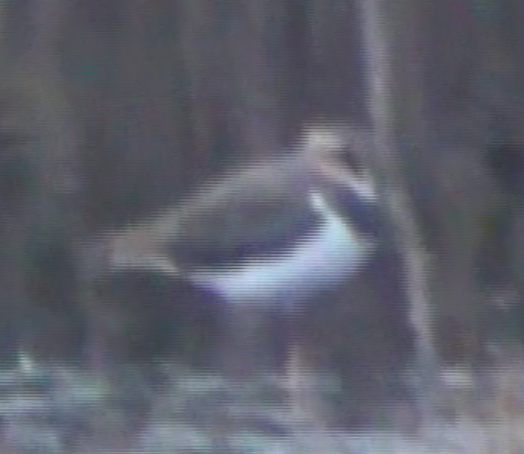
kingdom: Animalia
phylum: Chordata
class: Aves
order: Charadriiformes
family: Charadriidae
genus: Vanellus
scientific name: Vanellus vanellus
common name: Northern lapwing
